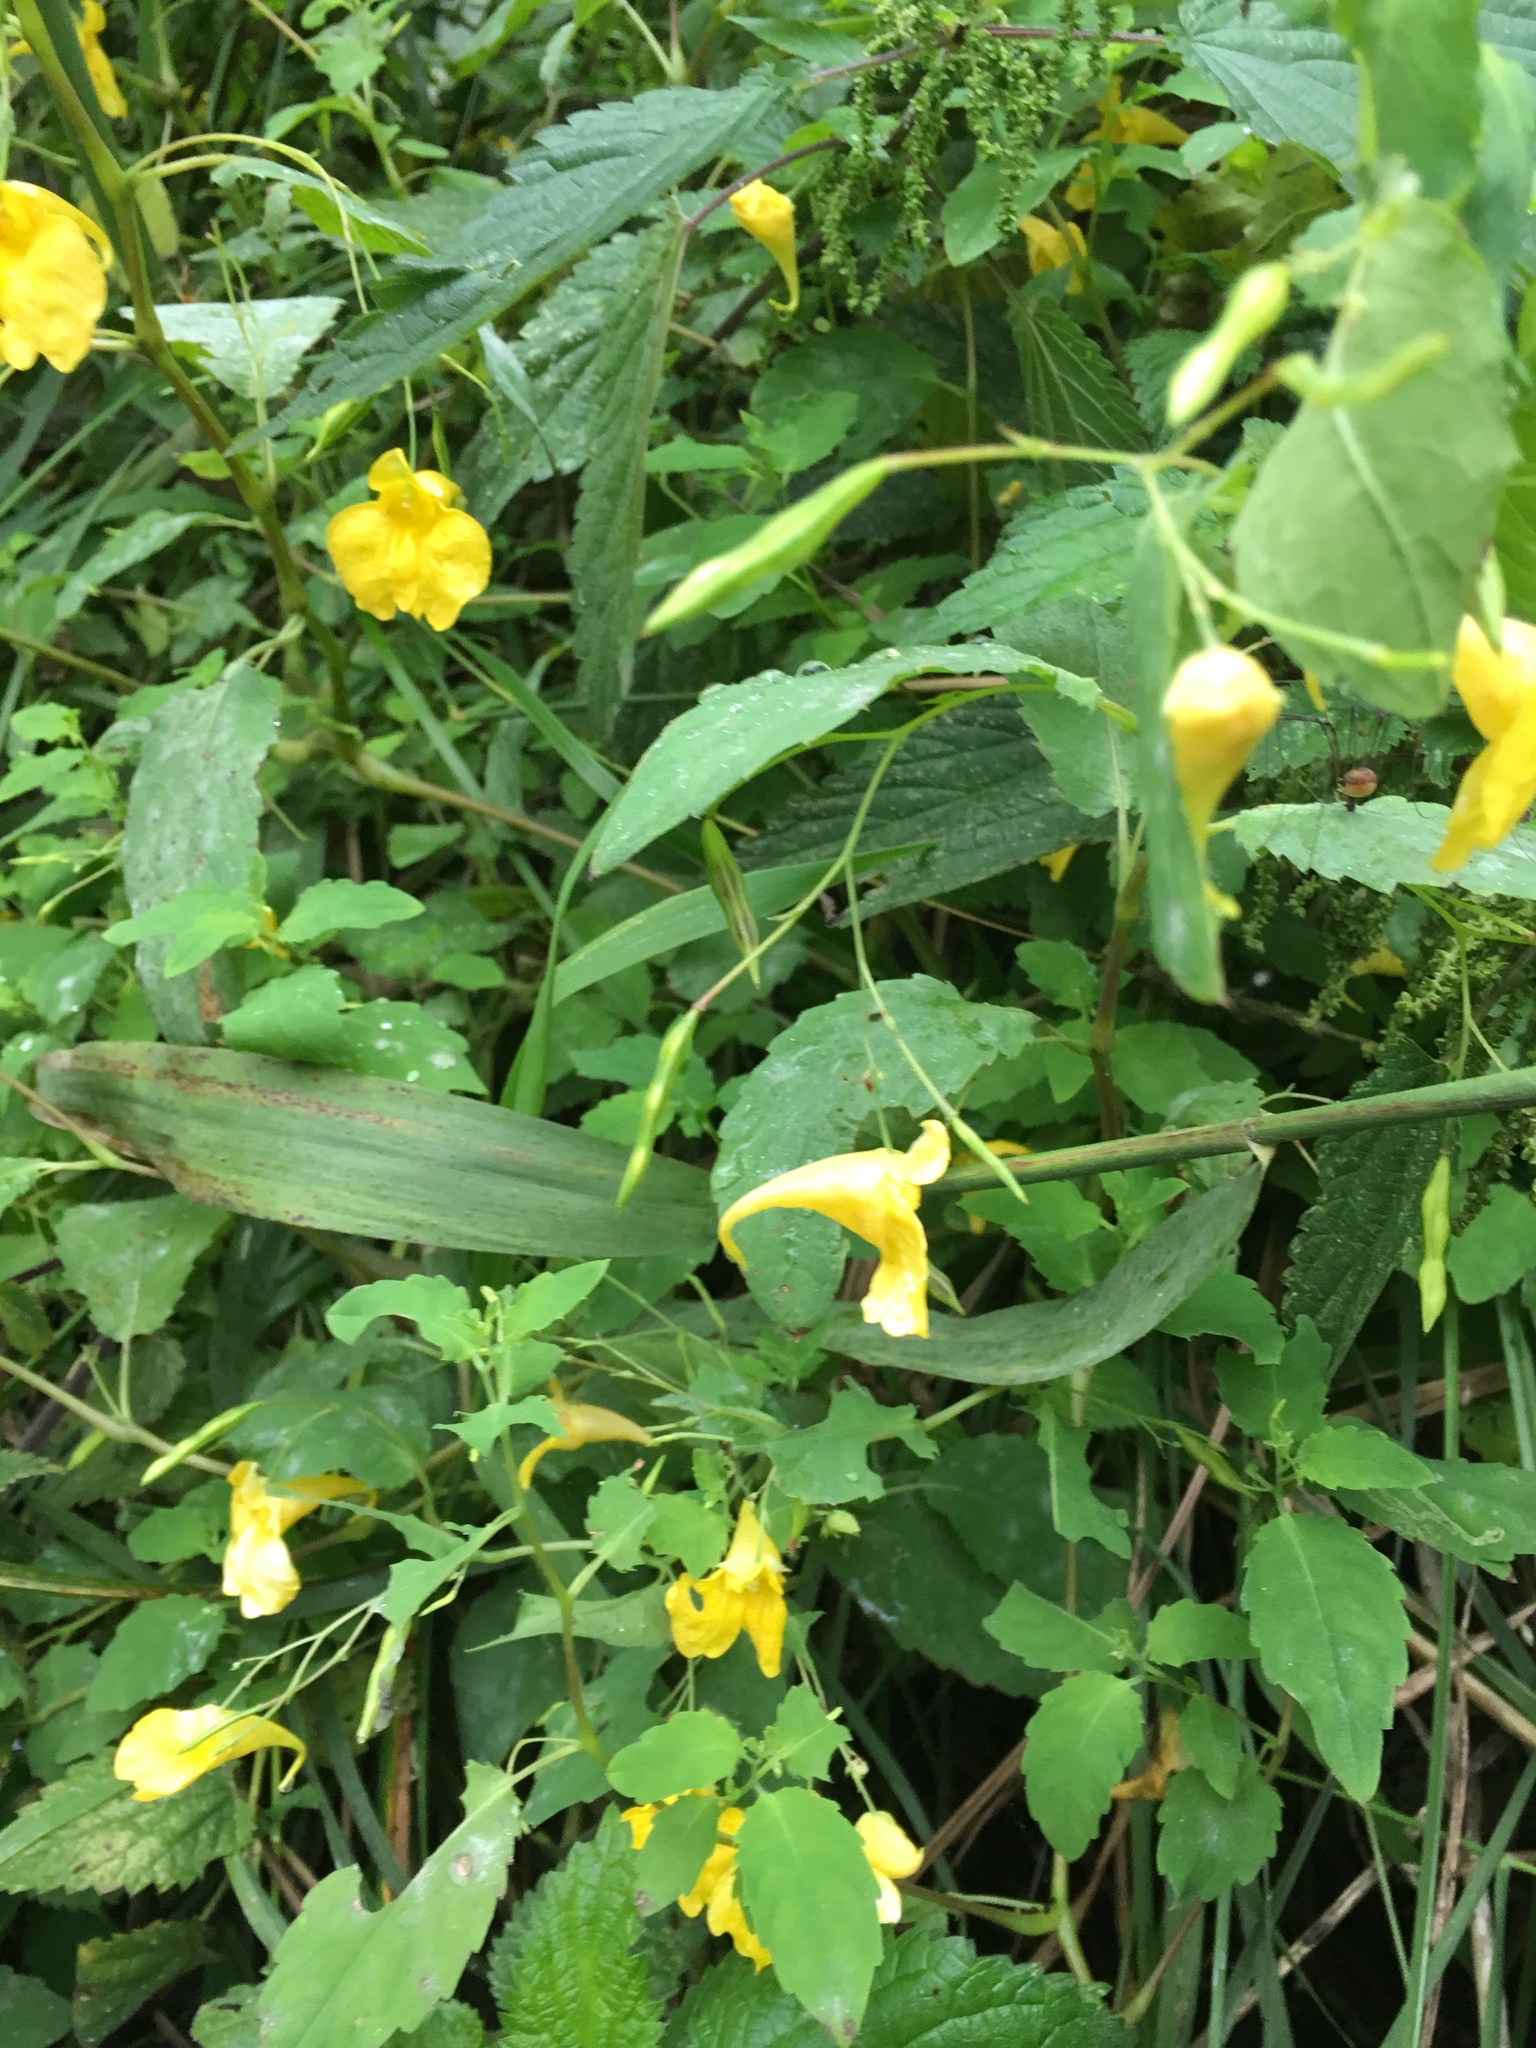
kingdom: Plantae
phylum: Tracheophyta
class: Magnoliopsida
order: Ericales
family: Balsaminaceae
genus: Impatiens
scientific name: Impatiens noli-tangere
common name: Touch-me-not balsam
